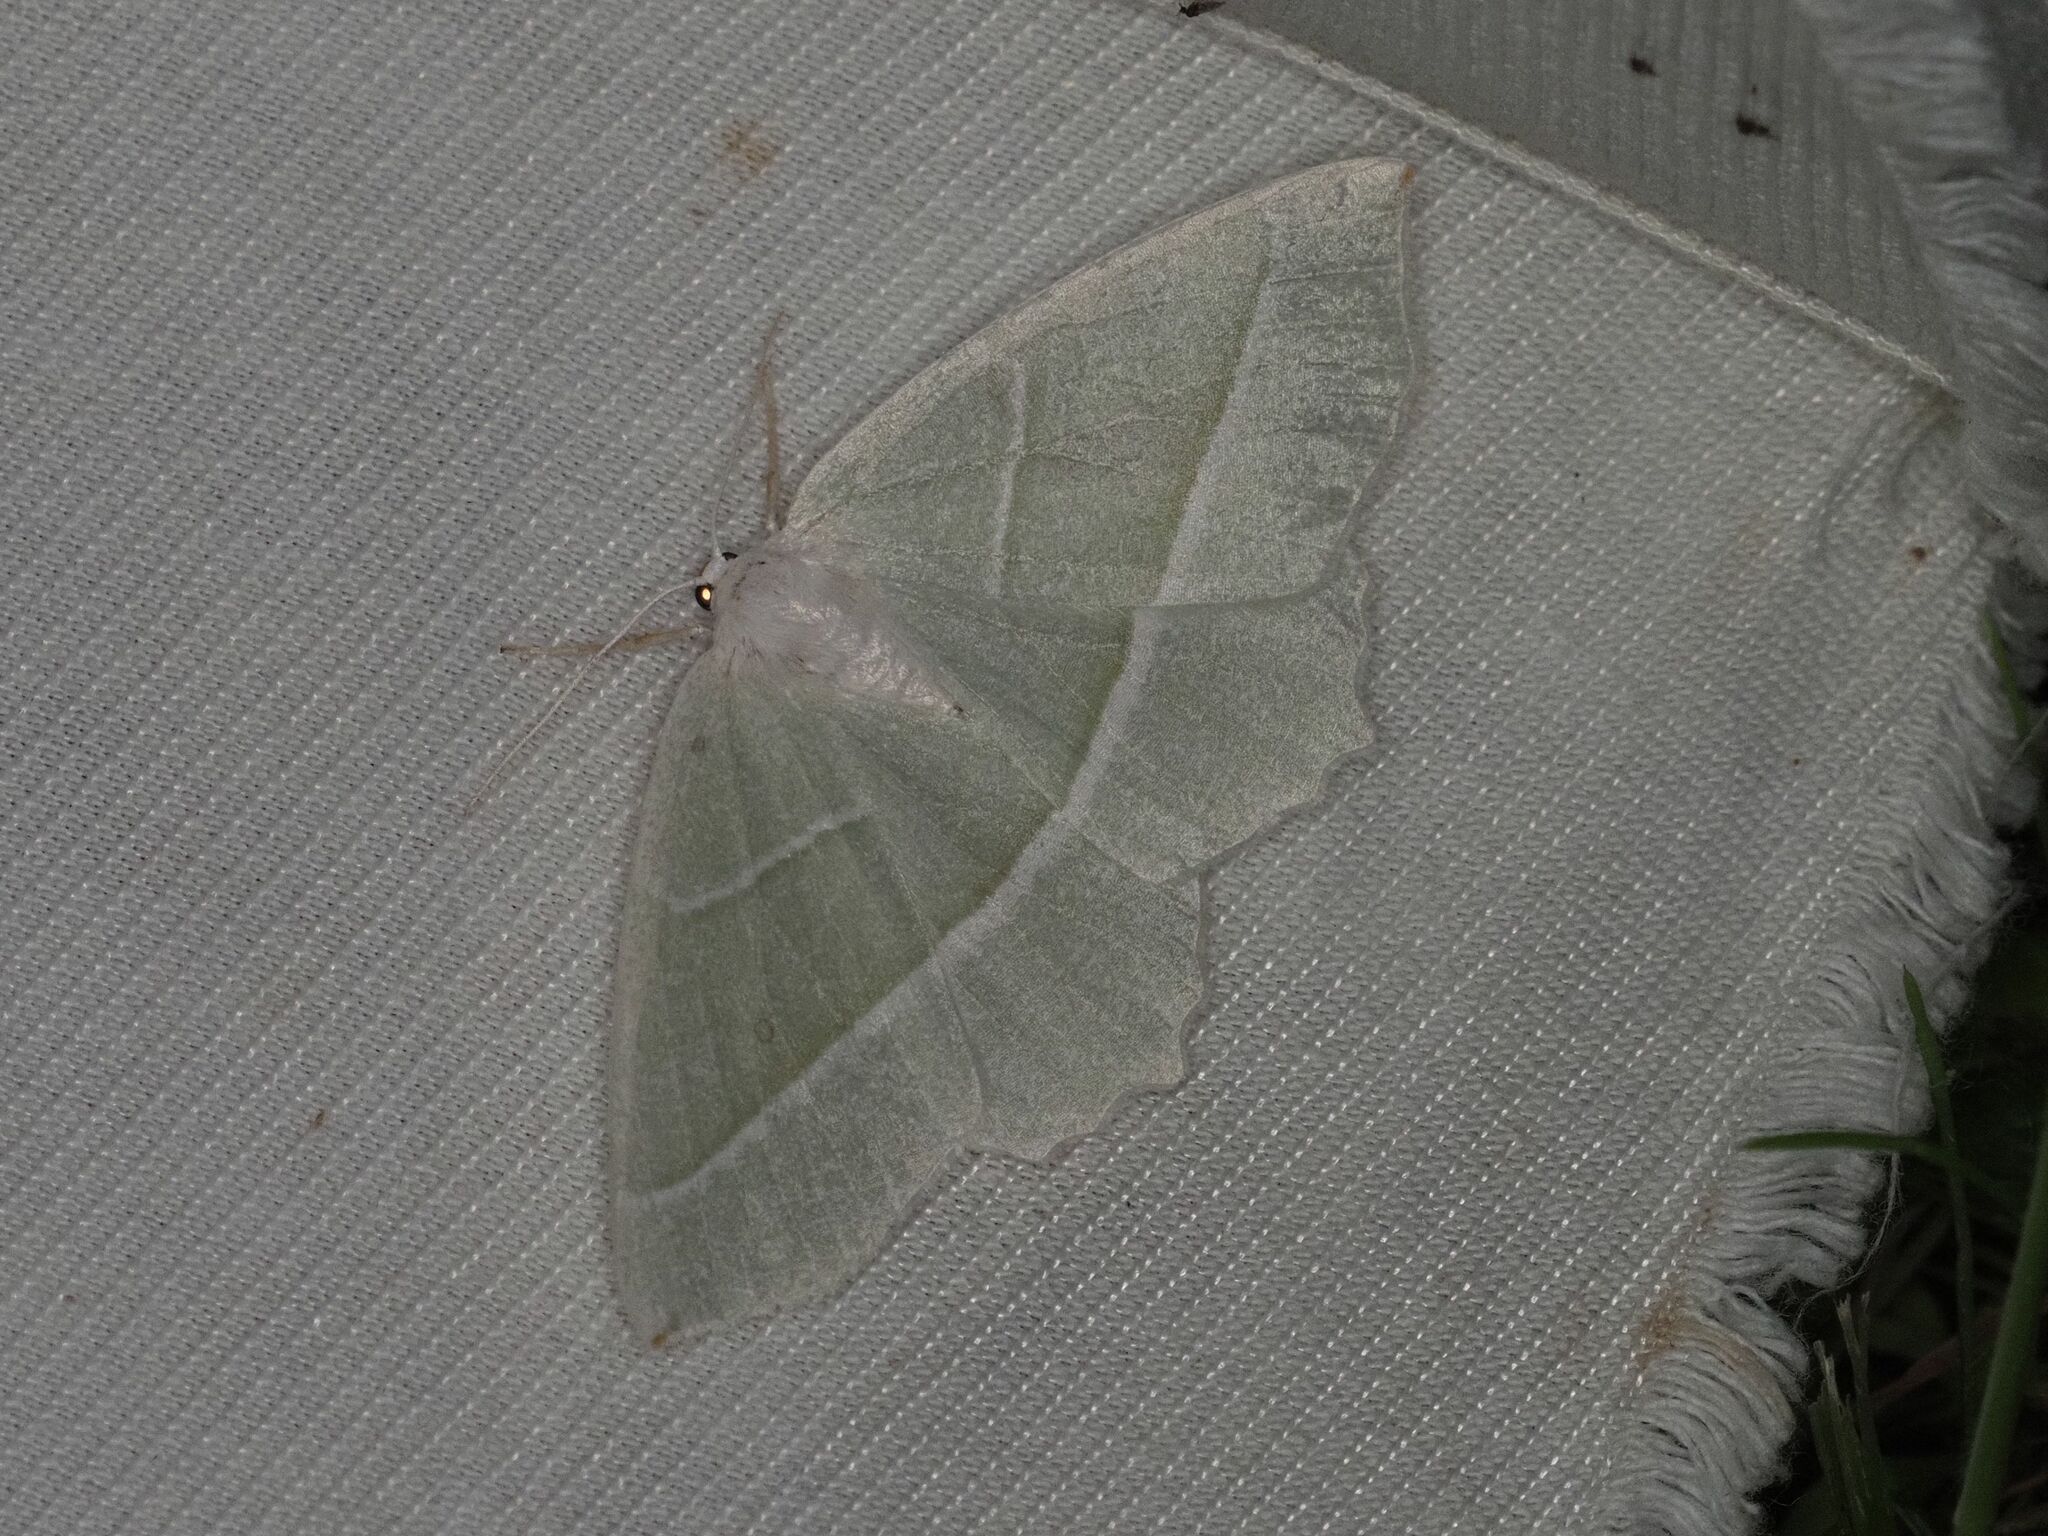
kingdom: Animalia
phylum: Arthropoda
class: Insecta
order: Lepidoptera
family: Geometridae
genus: Campaea
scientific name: Campaea margaritaria
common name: Light emerald
